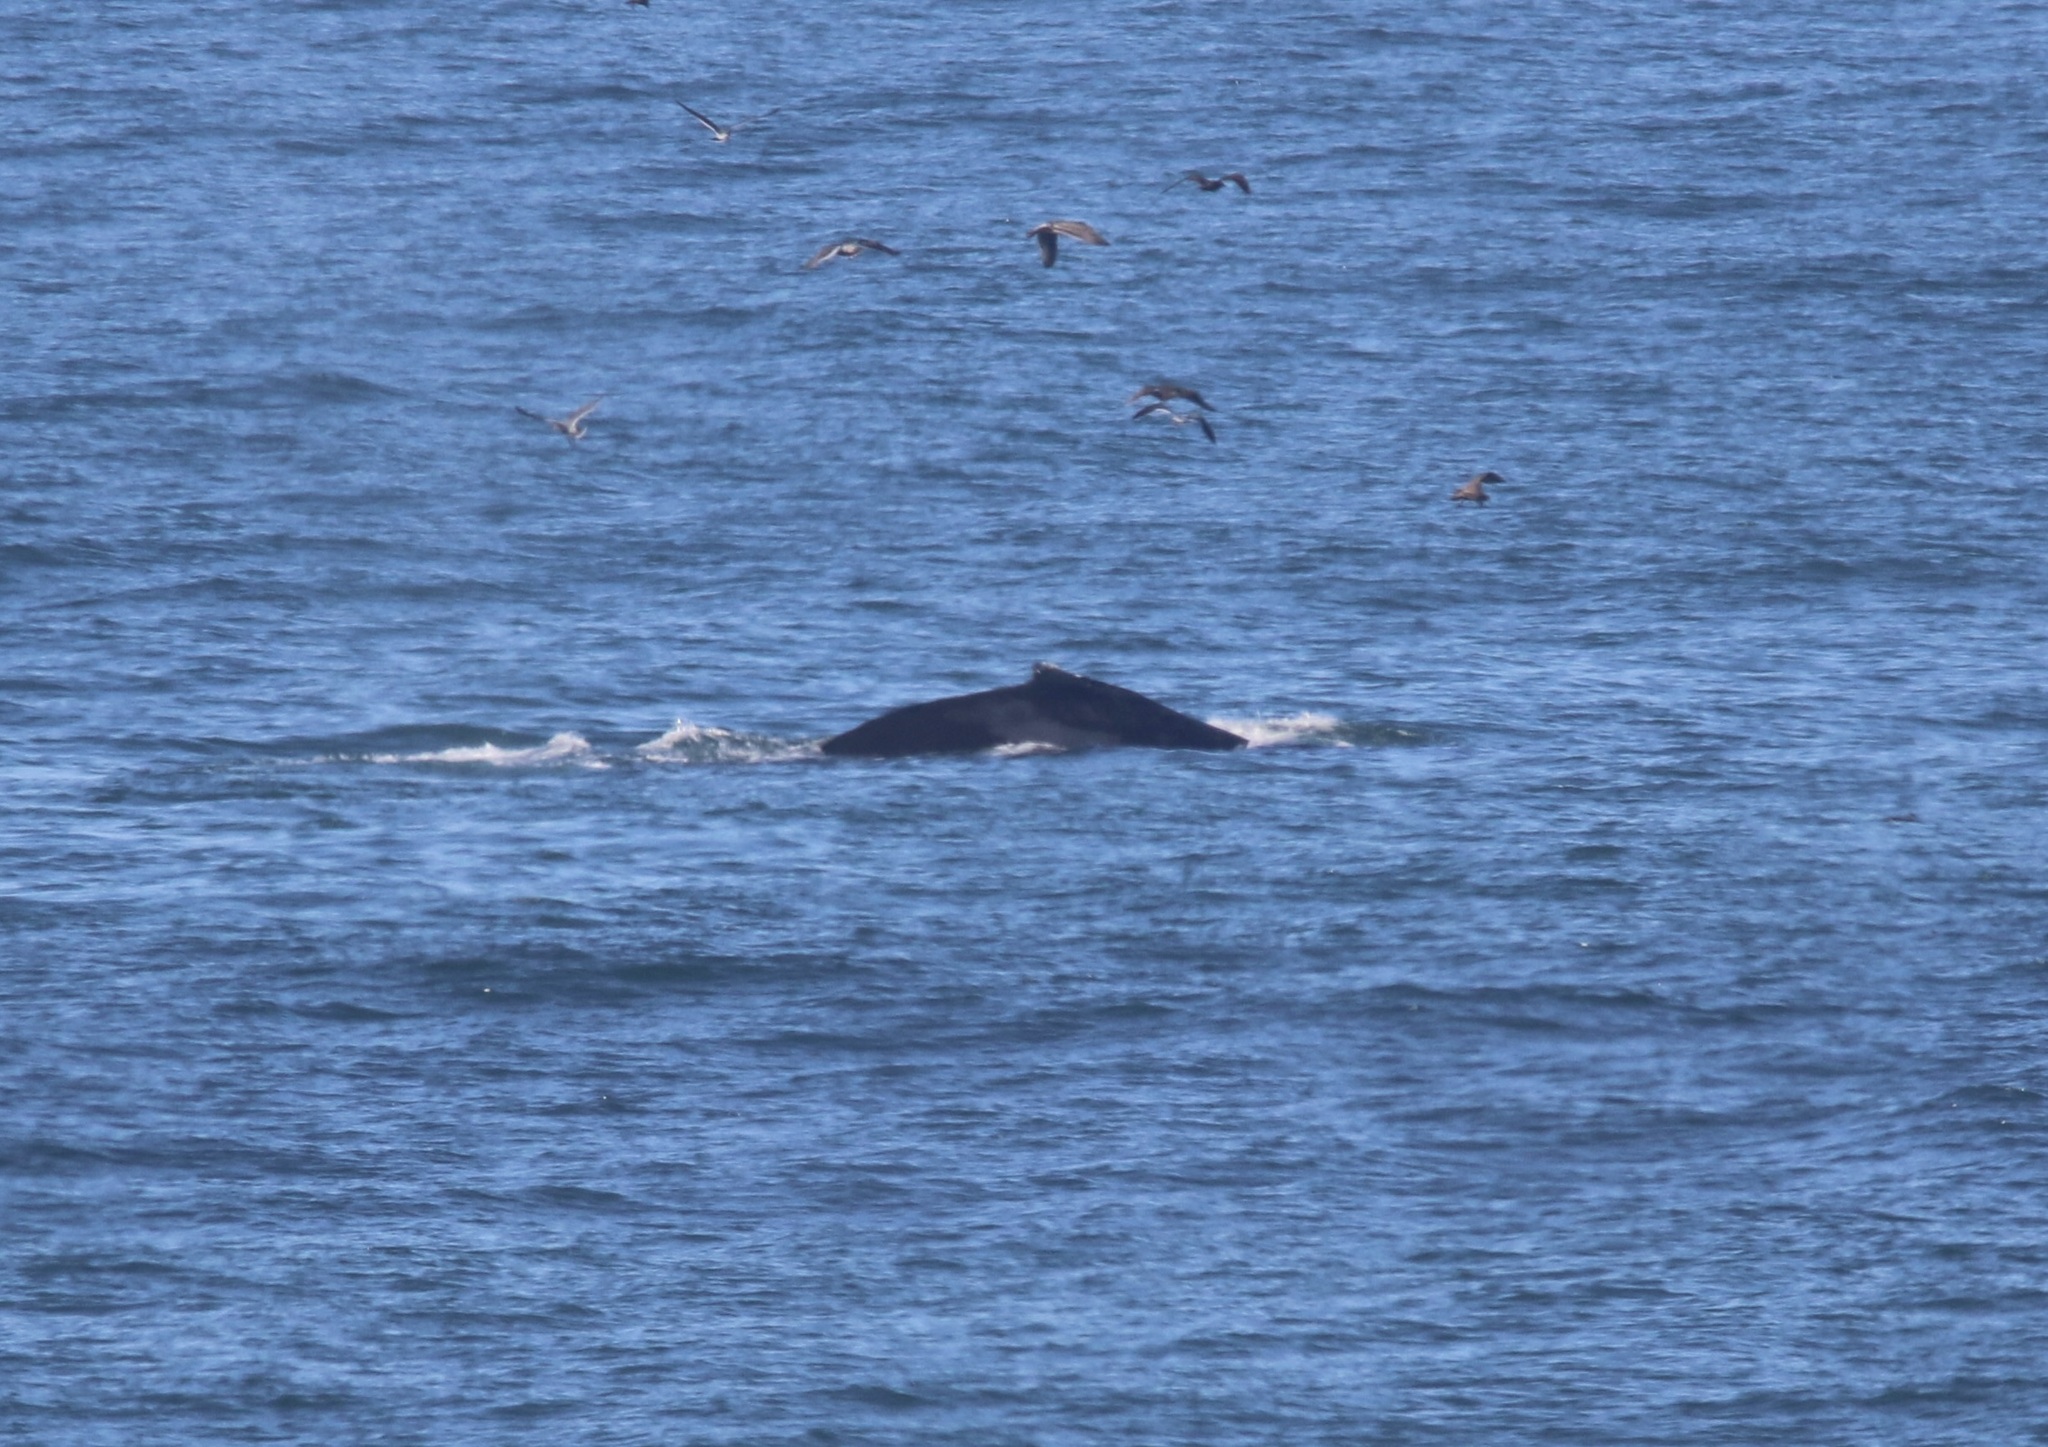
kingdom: Animalia
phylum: Chordata
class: Mammalia
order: Cetacea
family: Balaenopteridae
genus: Megaptera
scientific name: Megaptera novaeangliae
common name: Humpback whale
